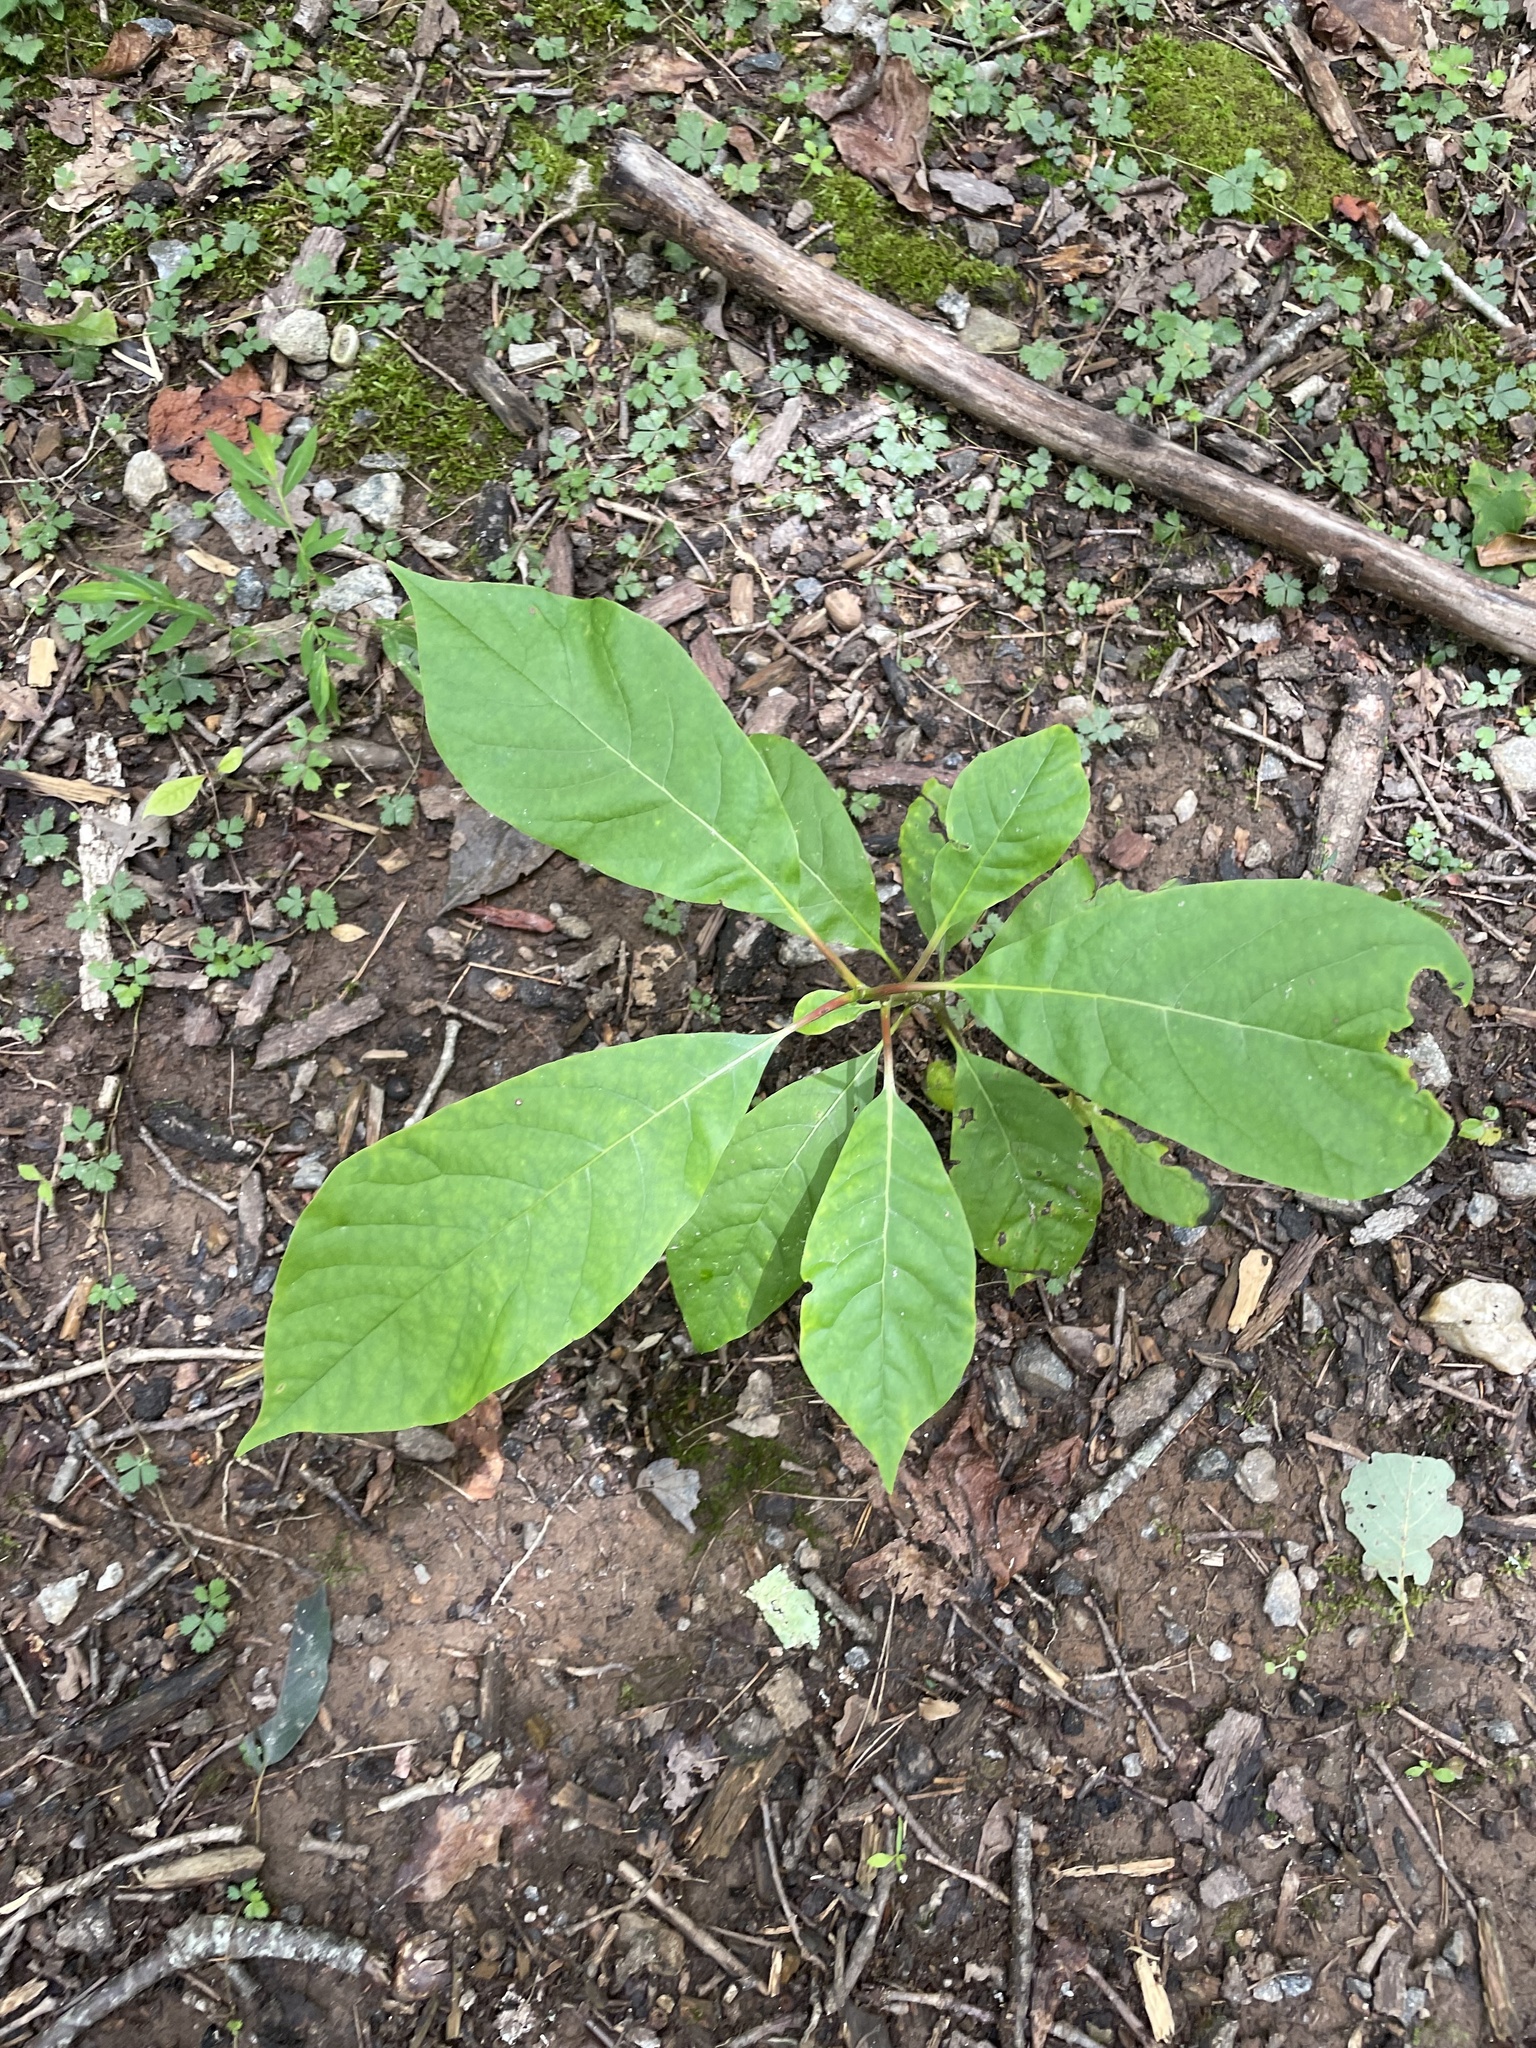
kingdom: Plantae
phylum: Tracheophyta
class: Magnoliopsida
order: Cornales
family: Nyssaceae
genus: Nyssa
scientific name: Nyssa sylvatica
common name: Black tupelo
